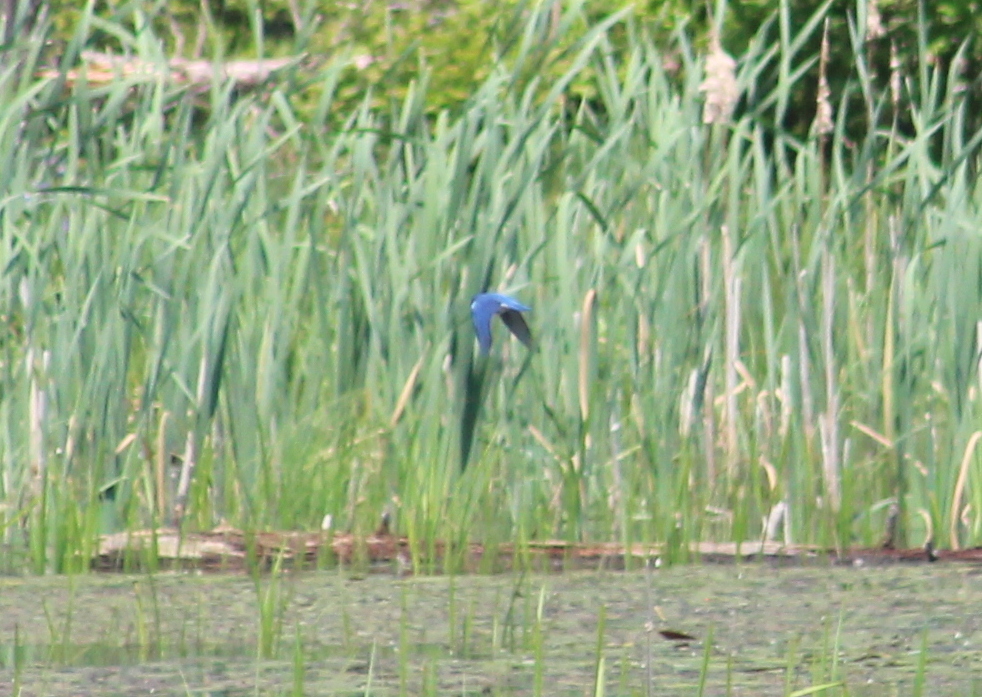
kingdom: Animalia
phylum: Chordata
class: Aves
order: Passeriformes
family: Turdidae
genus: Sialia
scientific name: Sialia sialis
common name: Eastern bluebird
